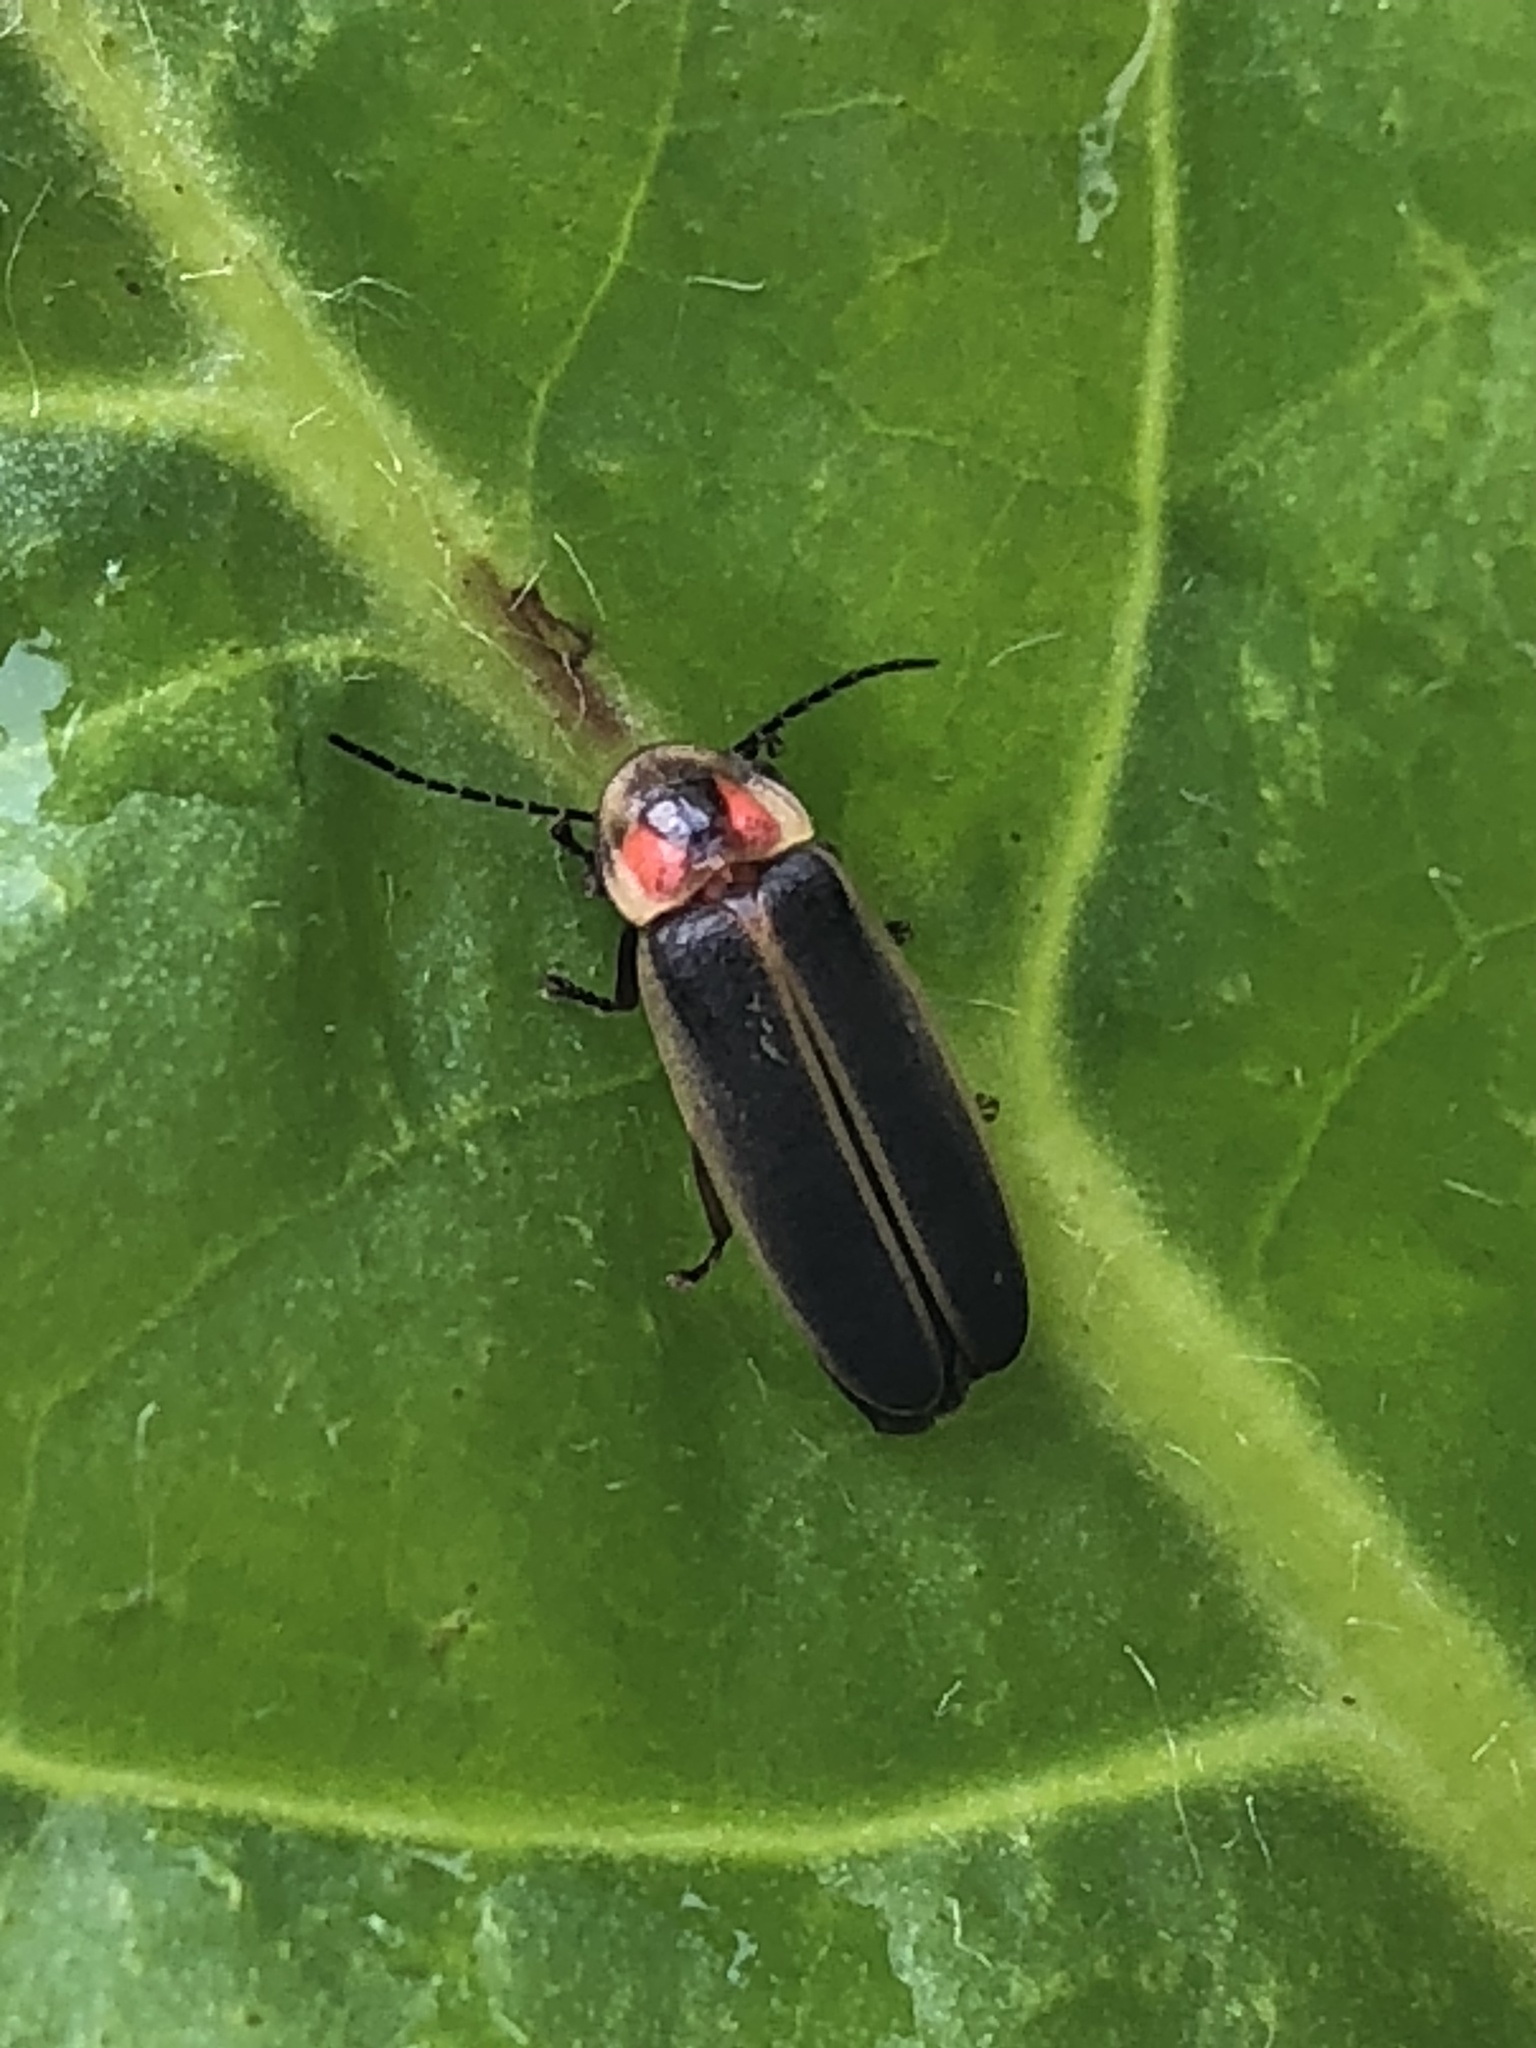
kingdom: Animalia
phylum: Arthropoda
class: Insecta
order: Coleoptera
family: Lampyridae
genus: Photinus
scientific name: Photinus pyralis
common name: Big dipper firefly
